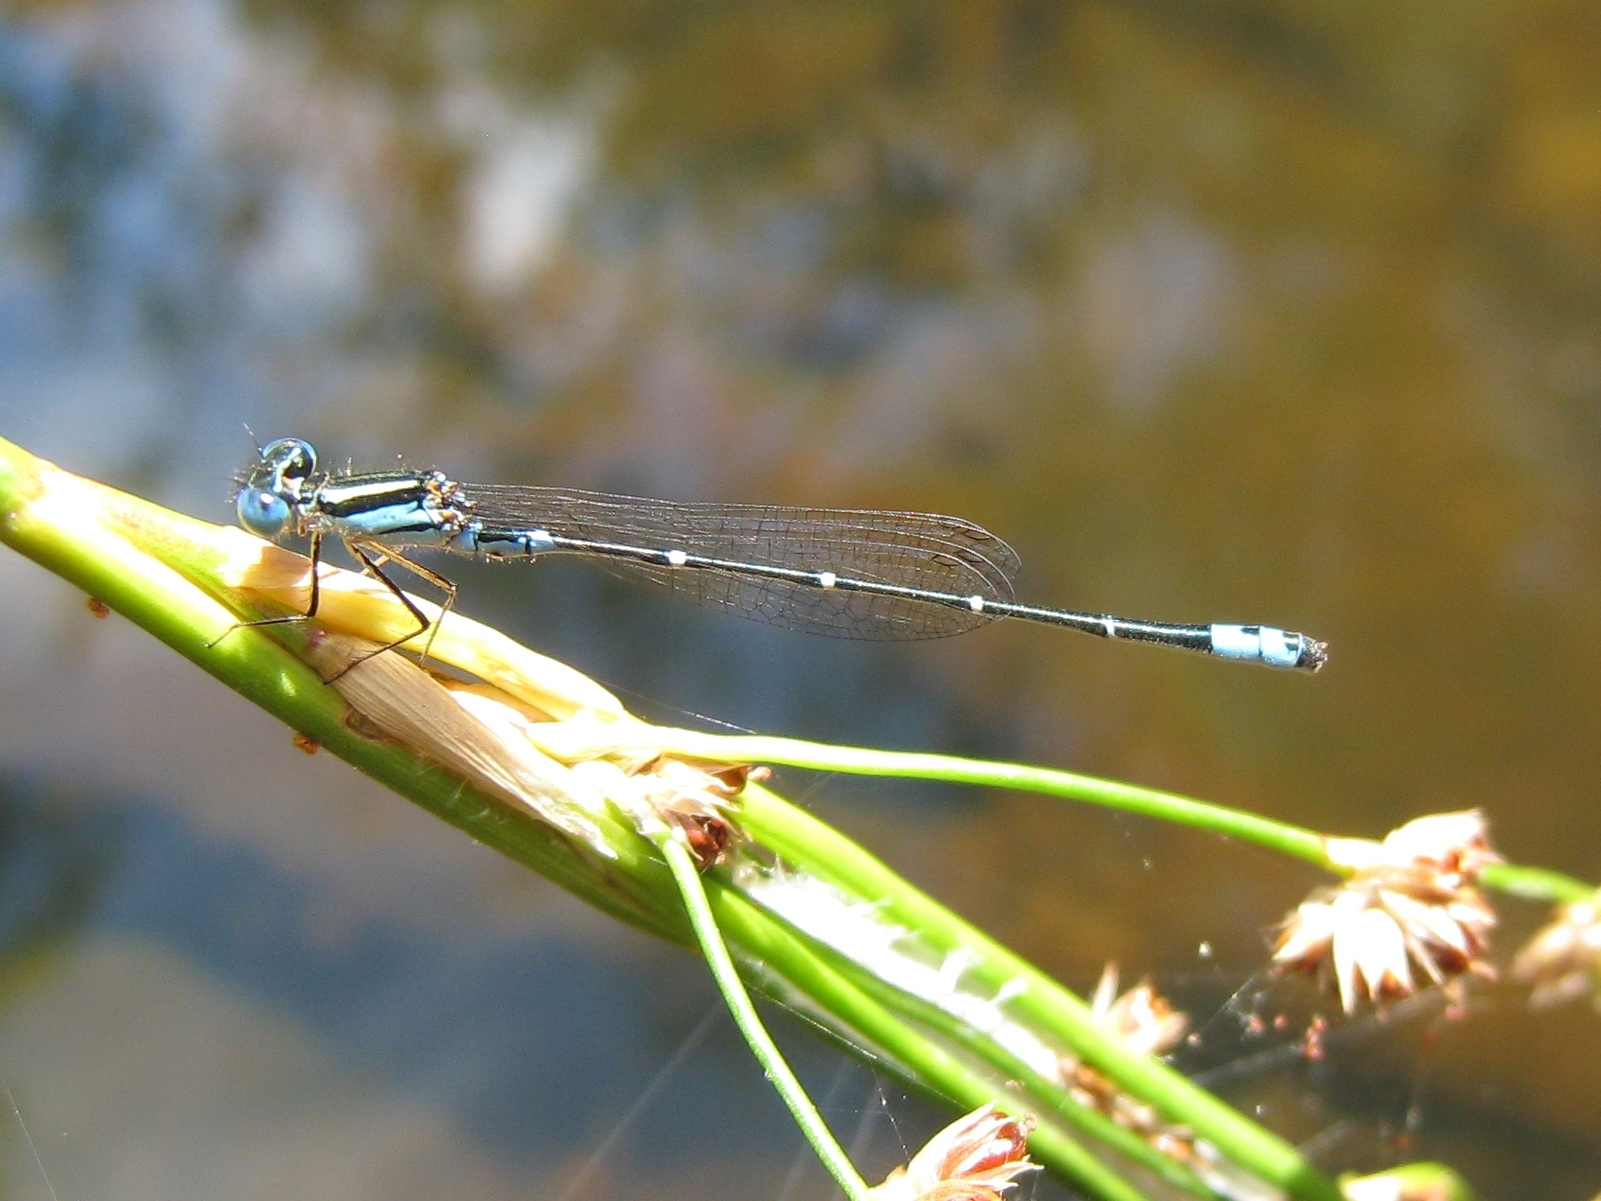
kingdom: Animalia
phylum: Arthropoda
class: Insecta
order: Odonata
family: Coenagrionidae
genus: Austroagrion
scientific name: Austroagrion watsoni
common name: Eastern billabongfly
